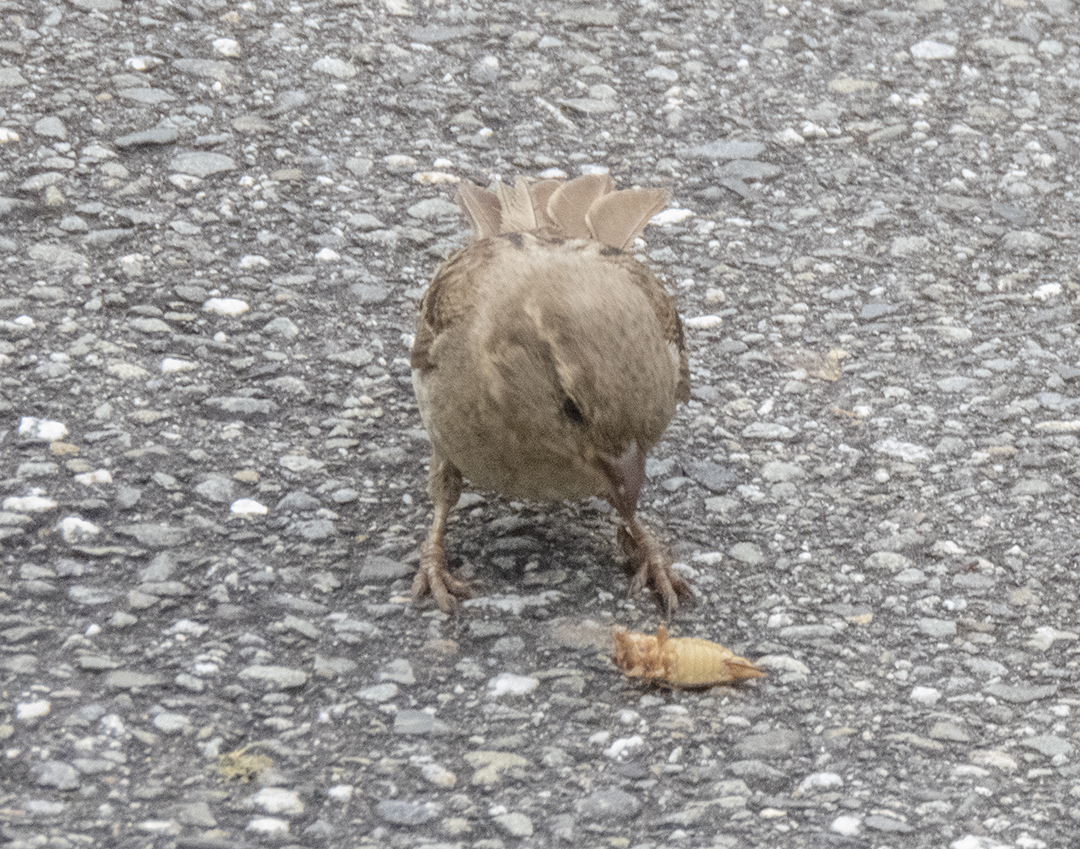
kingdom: Animalia
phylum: Chordata
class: Aves
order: Passeriformes
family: Passeridae
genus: Passer
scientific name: Passer domesticus
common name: House sparrow
